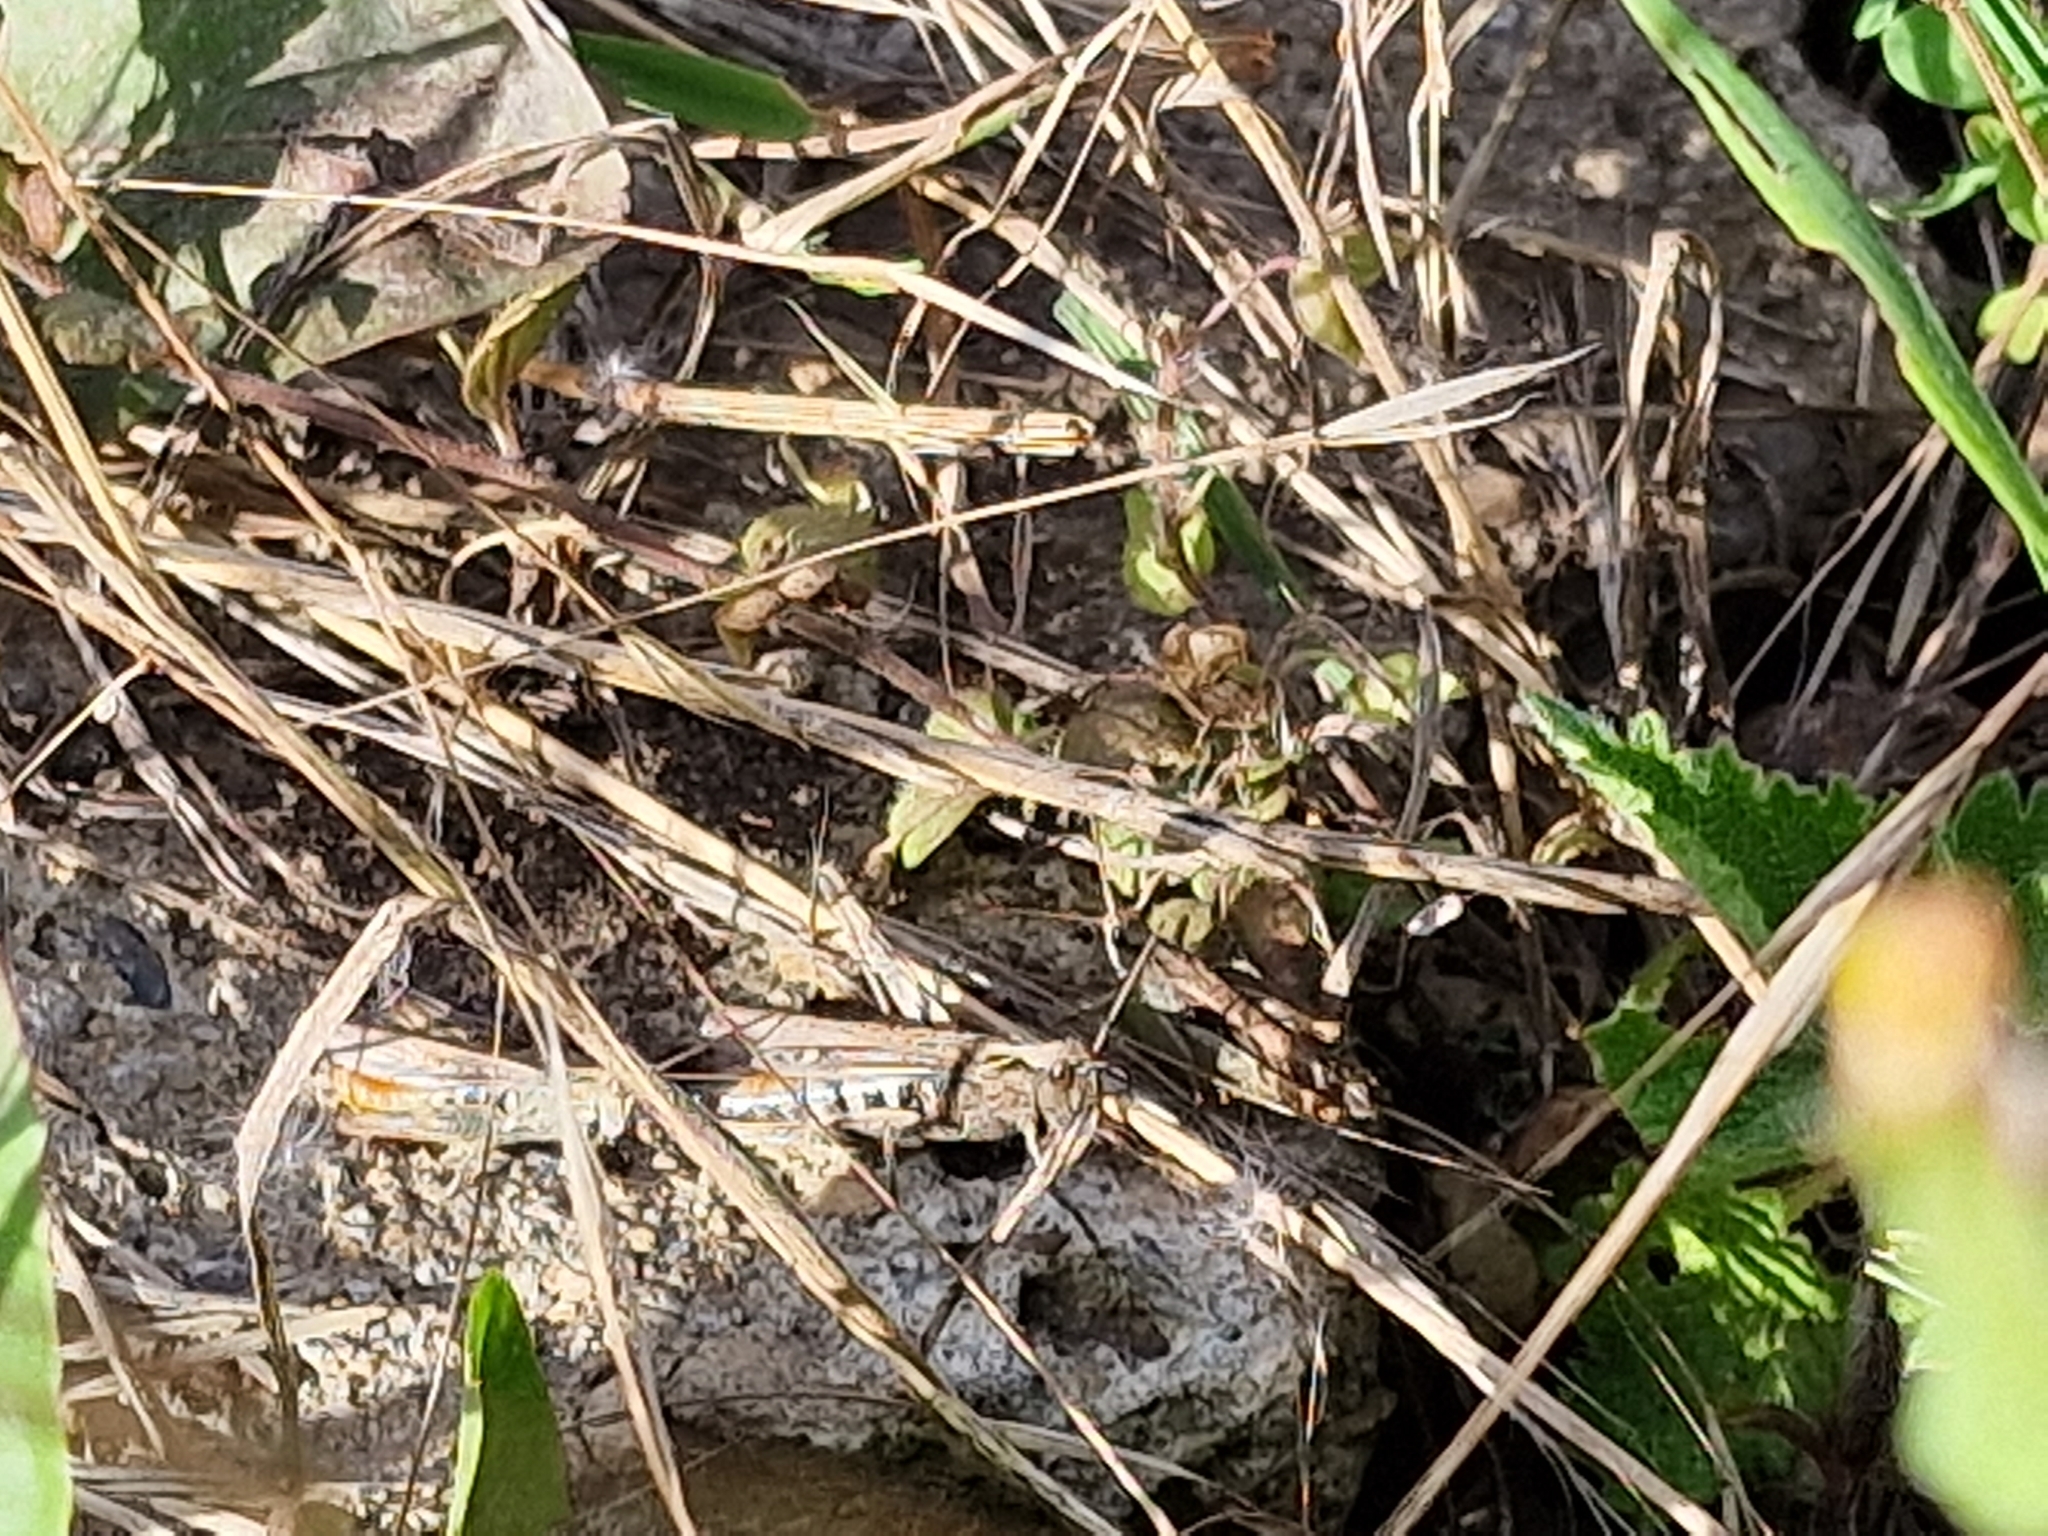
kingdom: Animalia
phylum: Arthropoda
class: Insecta
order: Orthoptera
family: Acrididae
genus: Chorthippus
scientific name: Chorthippus brunneus
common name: Field grasshopper
